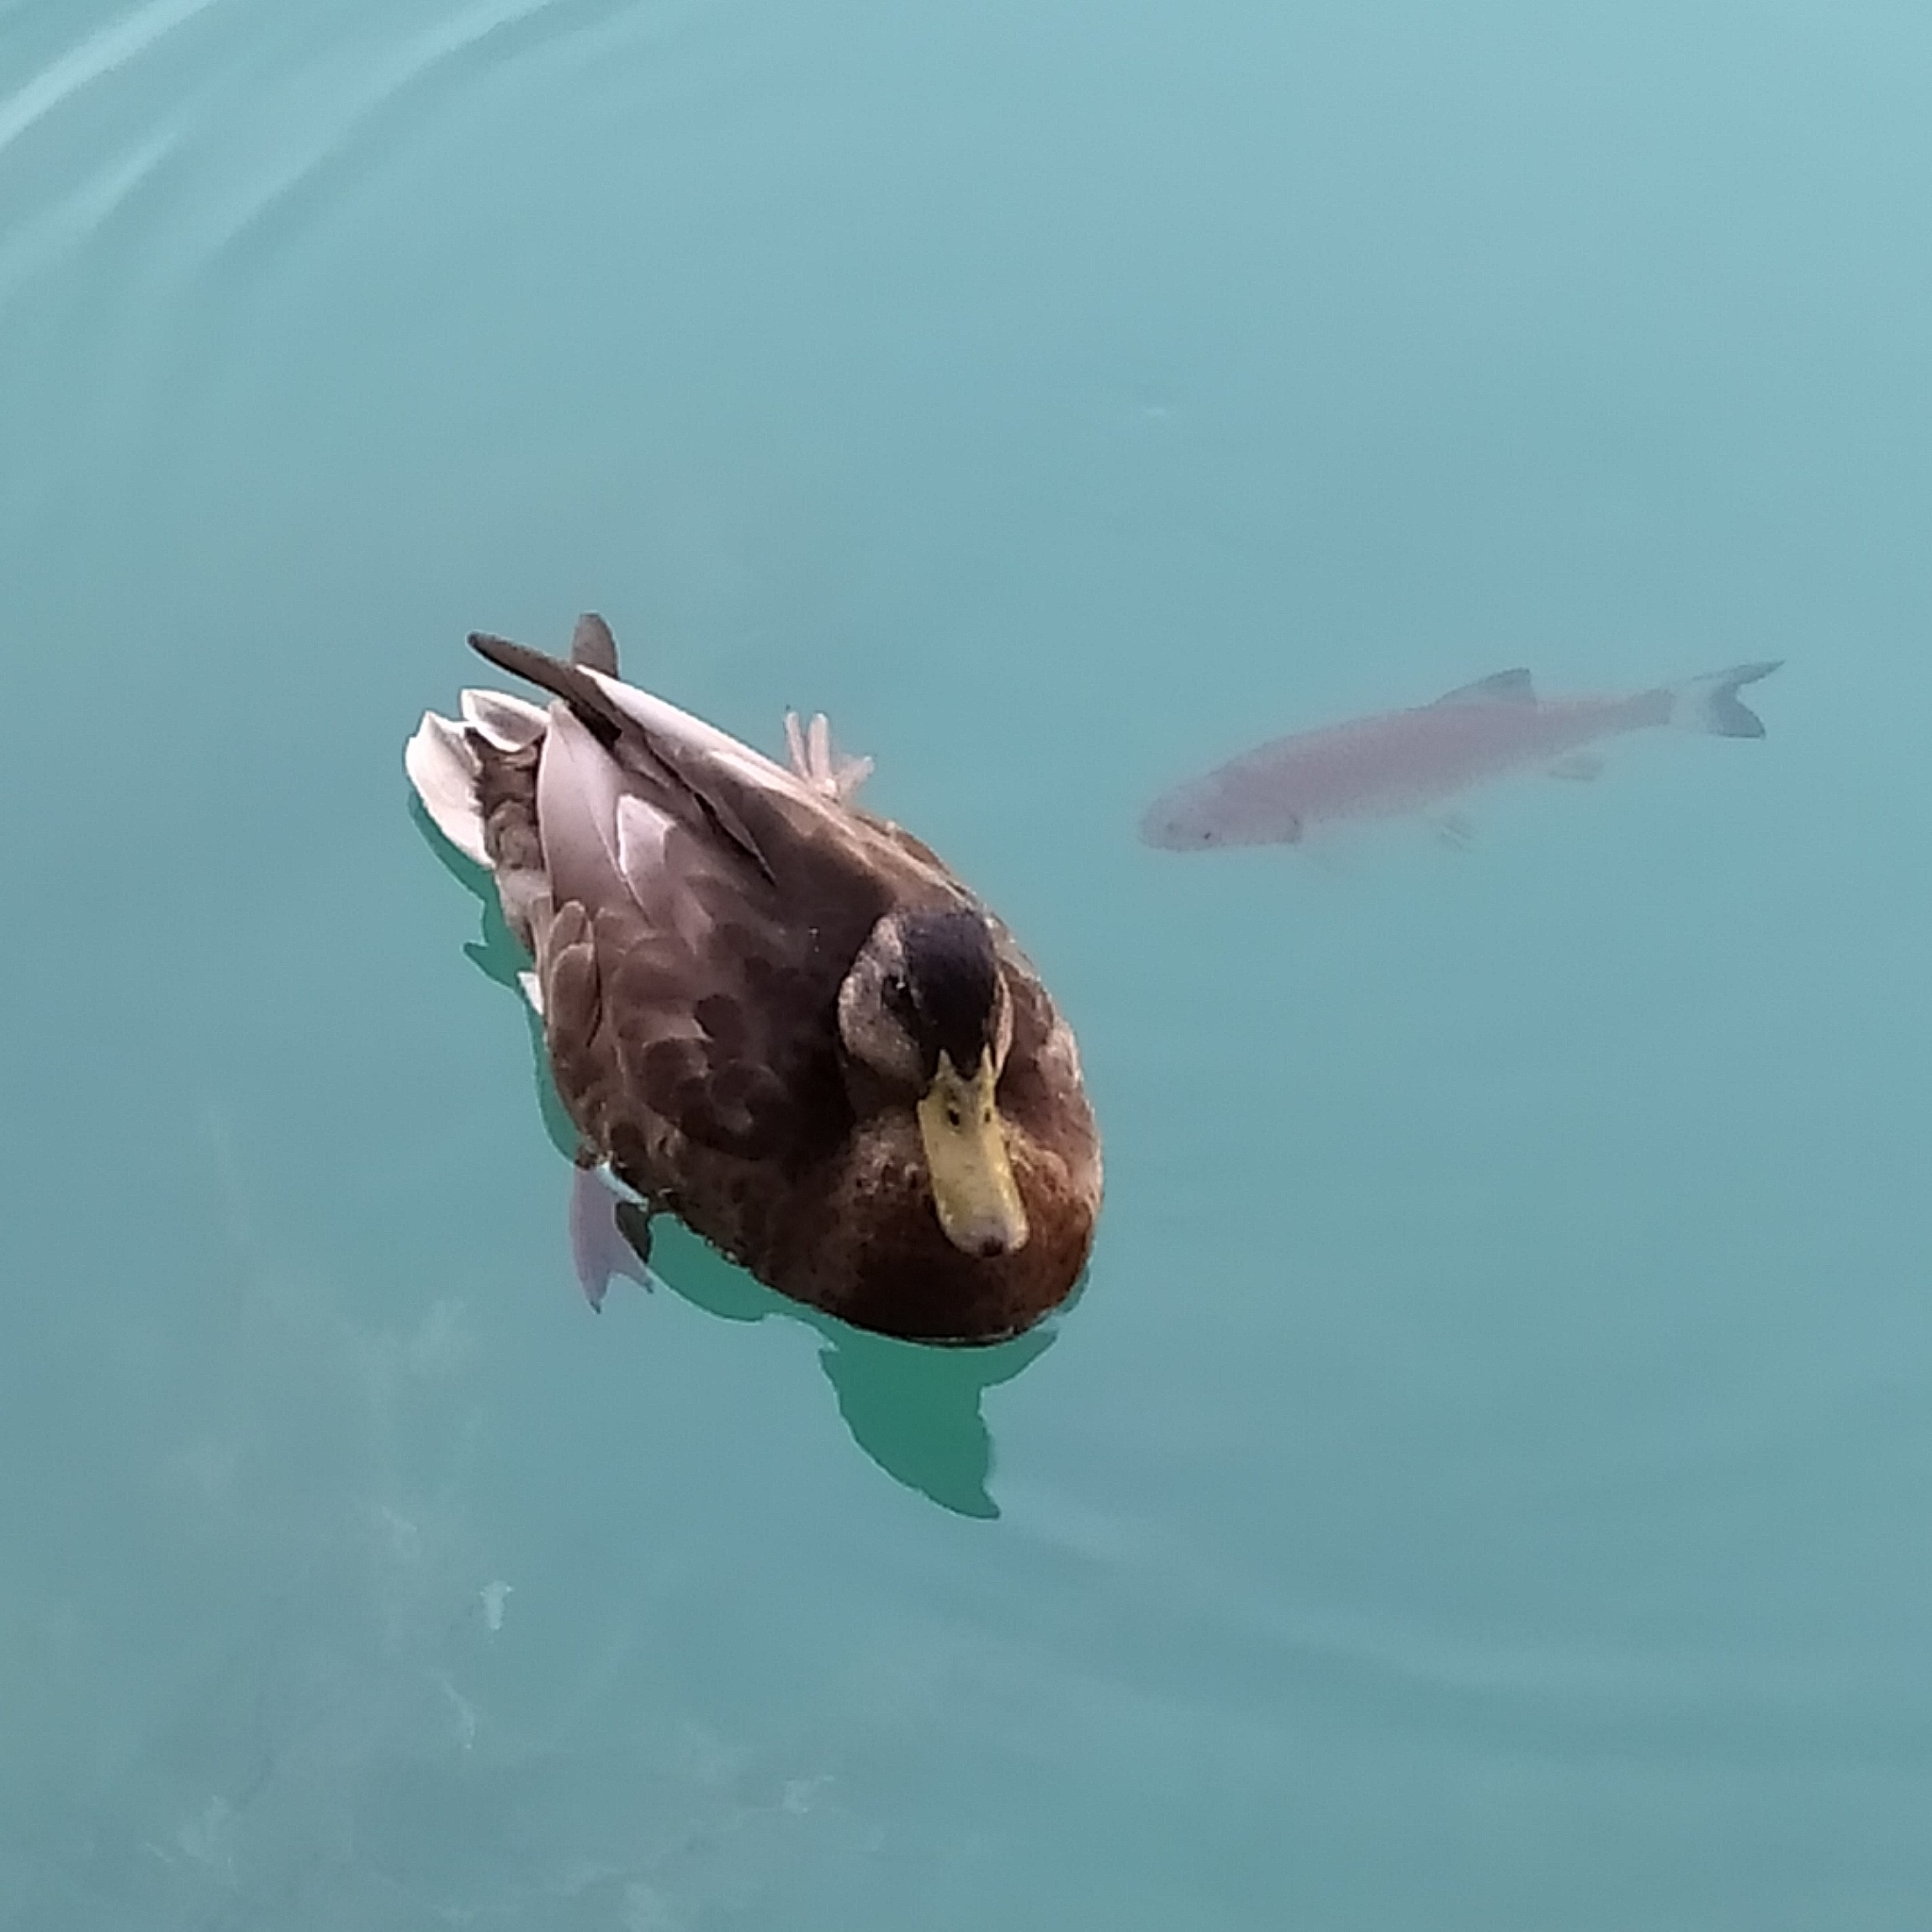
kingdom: Animalia
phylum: Chordata
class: Aves
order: Anseriformes
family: Anatidae
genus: Anas
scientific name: Anas platyrhynchos
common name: Mallard
